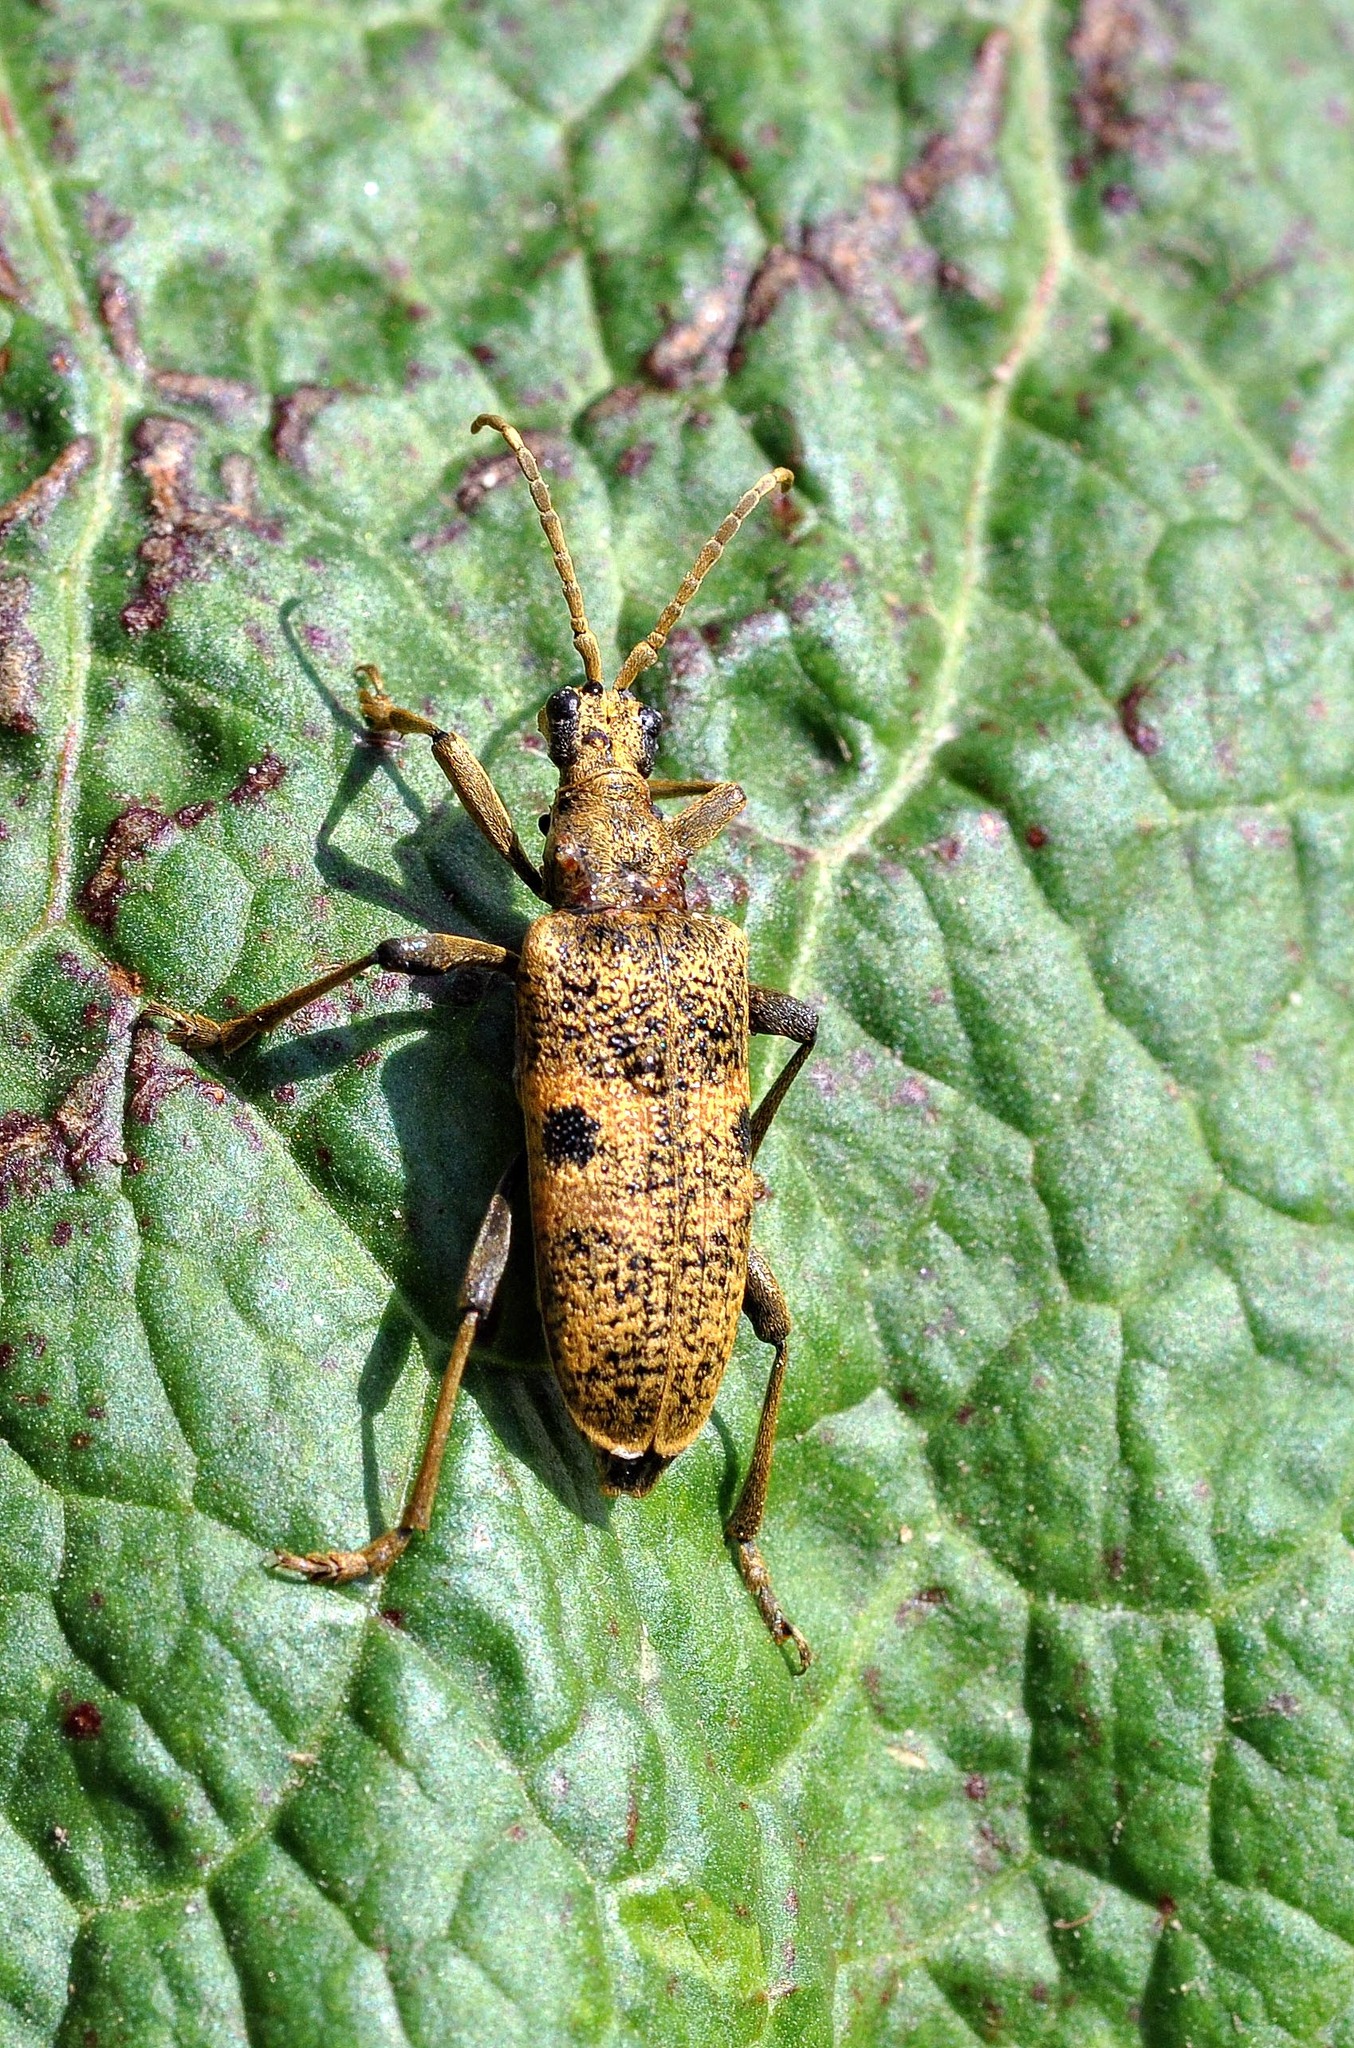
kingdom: Animalia
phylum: Arthropoda
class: Insecta
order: Coleoptera
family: Cerambycidae
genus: Rhagium
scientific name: Rhagium mordax
